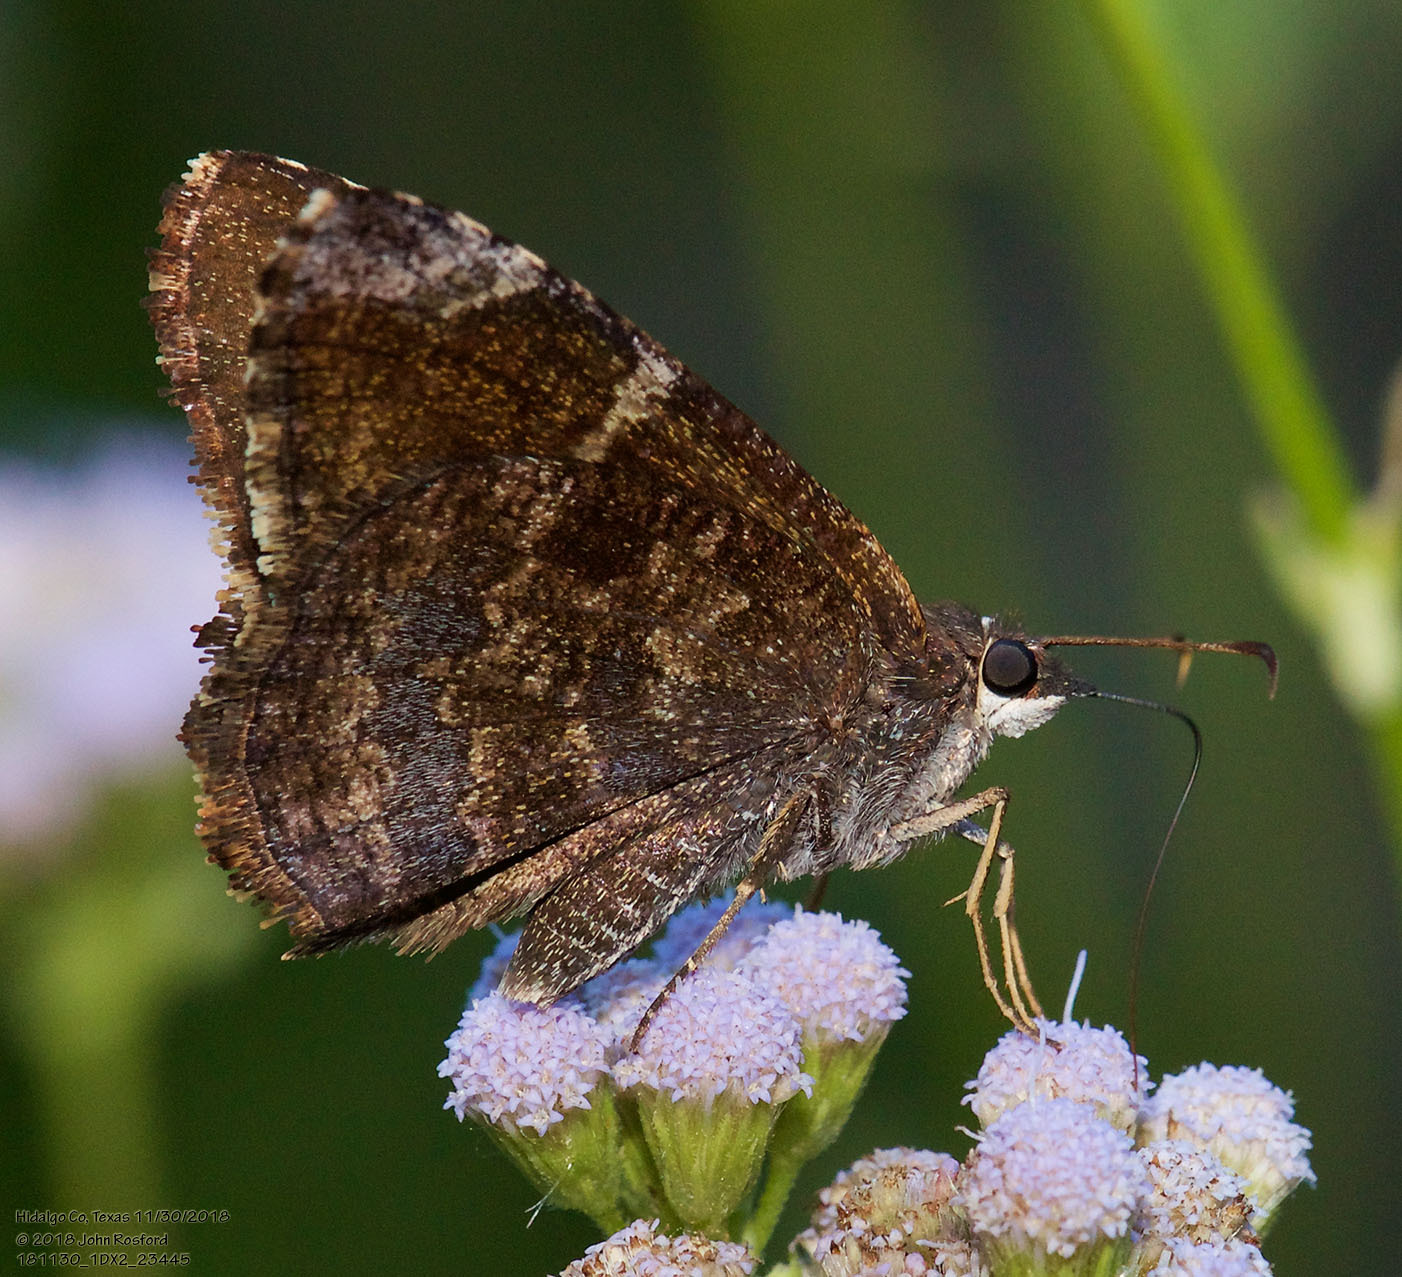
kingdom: Animalia
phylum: Arthropoda
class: Insecta
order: Lepidoptera
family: Hesperiidae
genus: Caicella
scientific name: Caicella calchas
